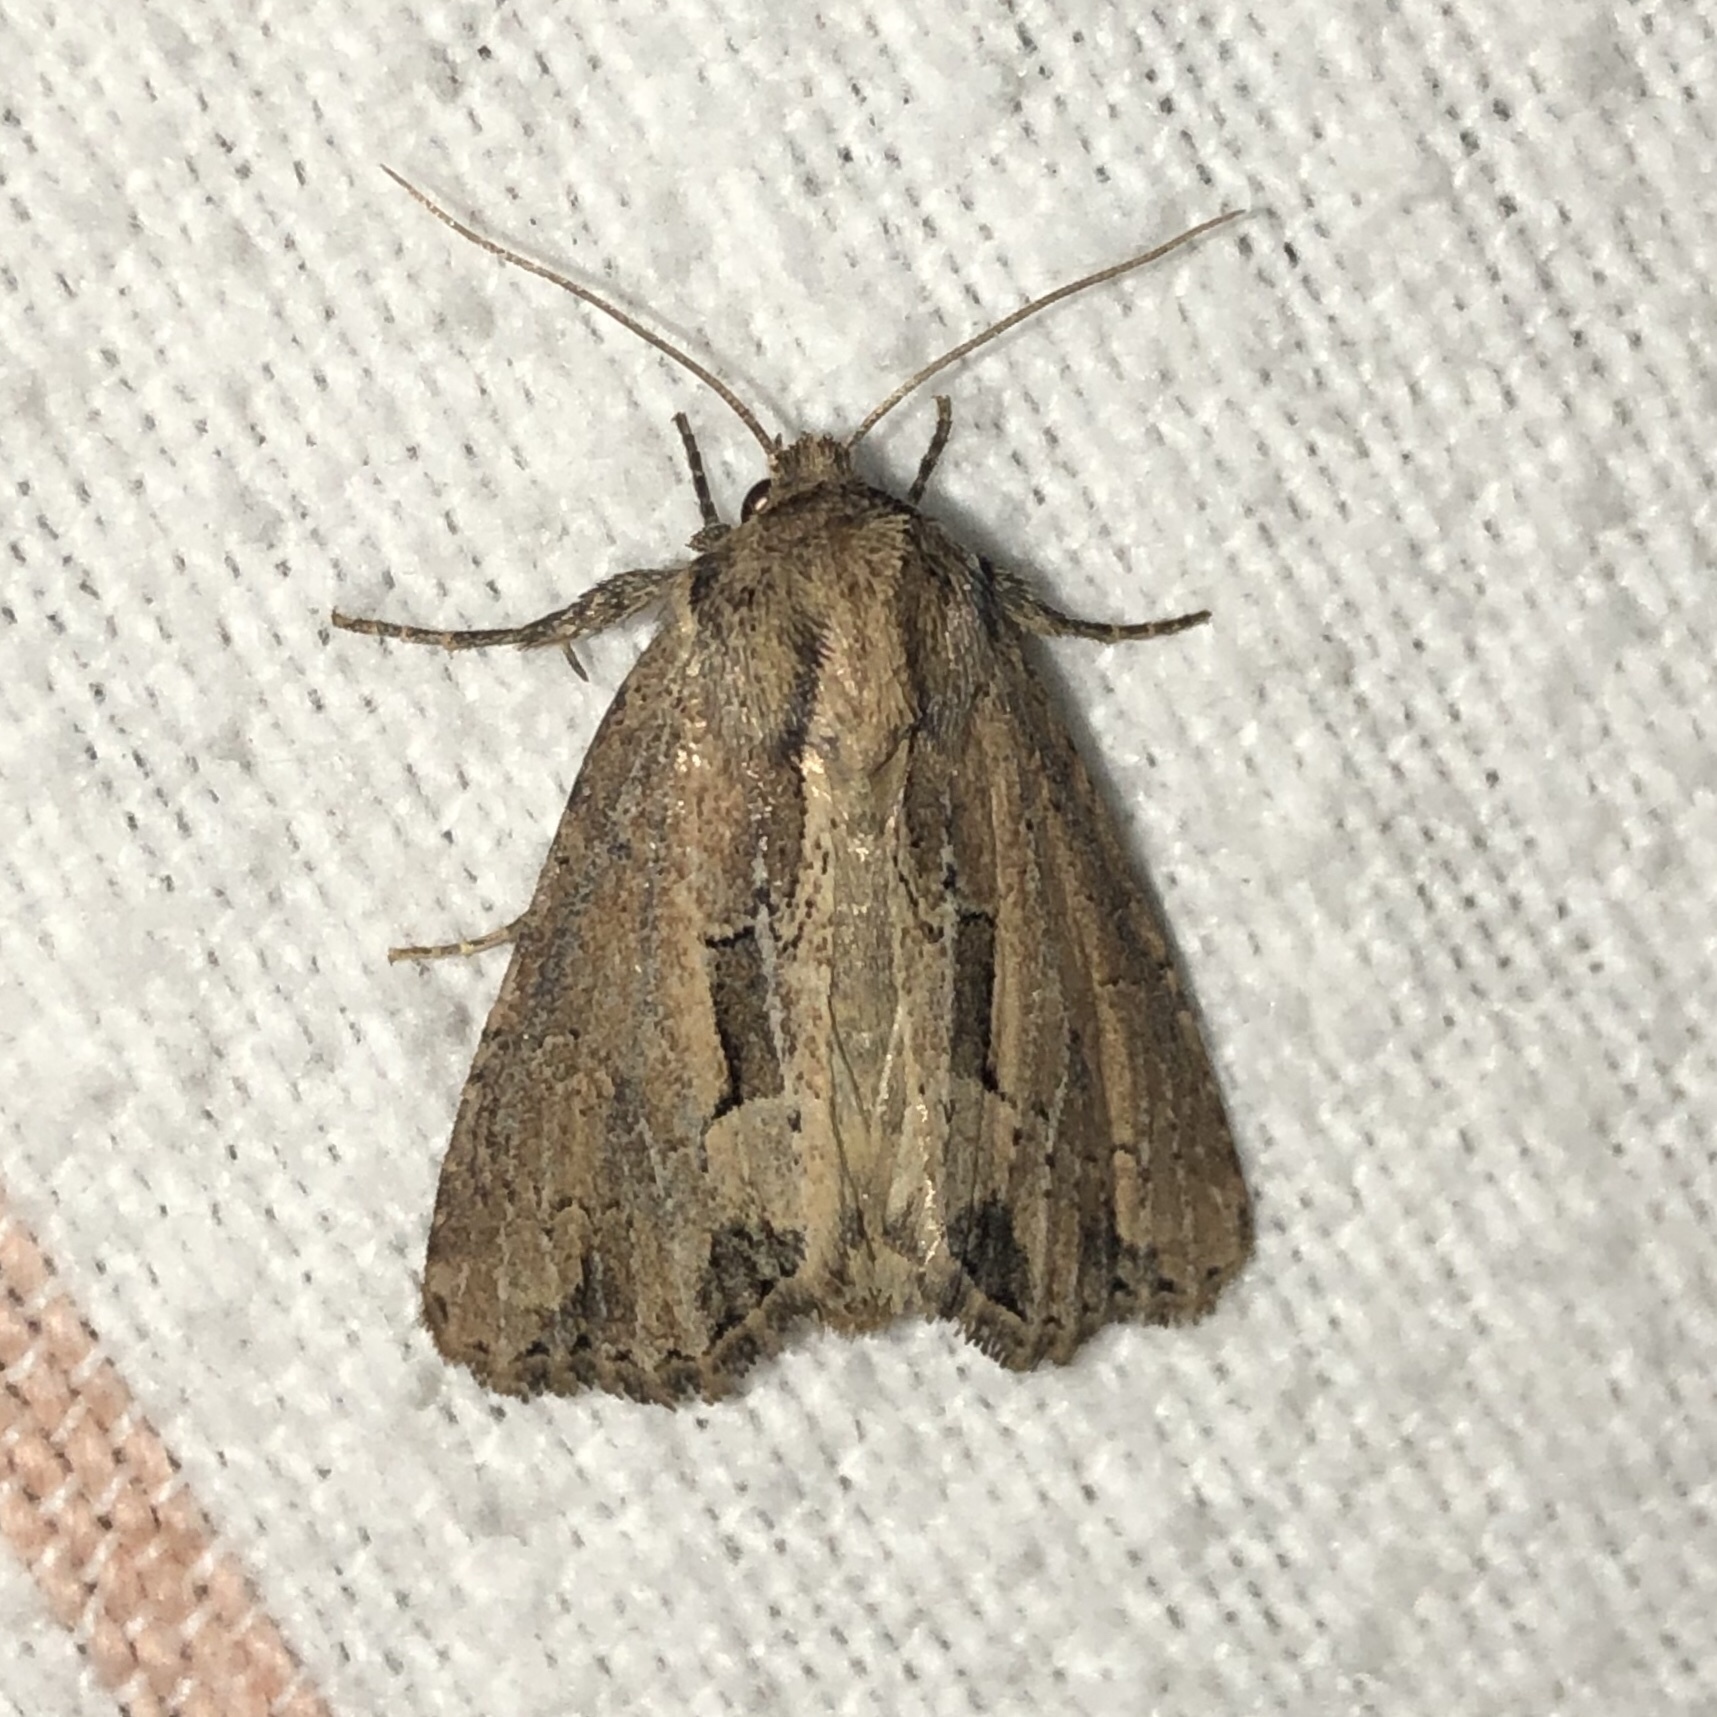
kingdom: Animalia
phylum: Arthropoda
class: Insecta
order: Lepidoptera
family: Noctuidae
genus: Xylomoia
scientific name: Xylomoia chagnoni
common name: Reed canary grass borer moth
